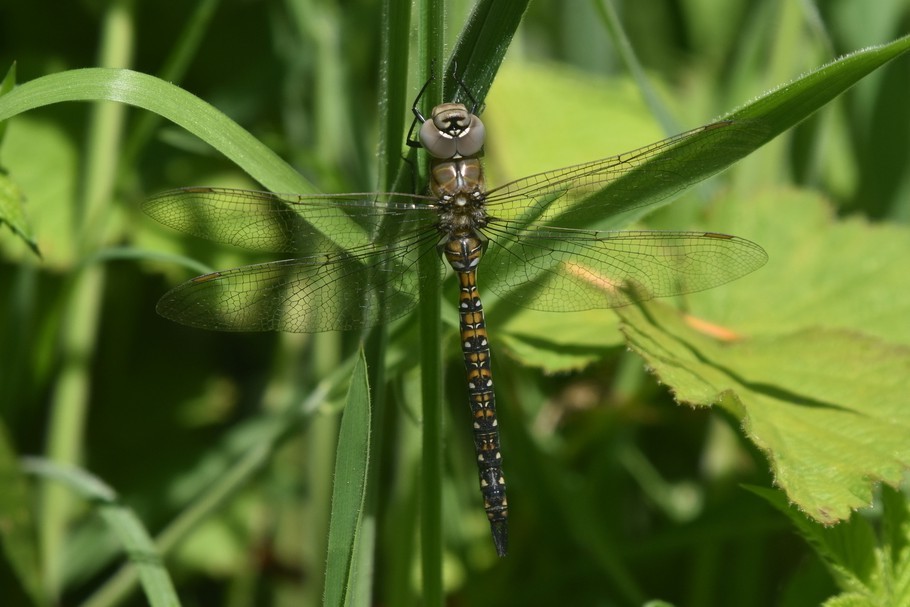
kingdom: Animalia
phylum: Arthropoda
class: Insecta
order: Odonata
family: Aeshnidae
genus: Rhionaeschna
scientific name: Rhionaeschna californica
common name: California darner
